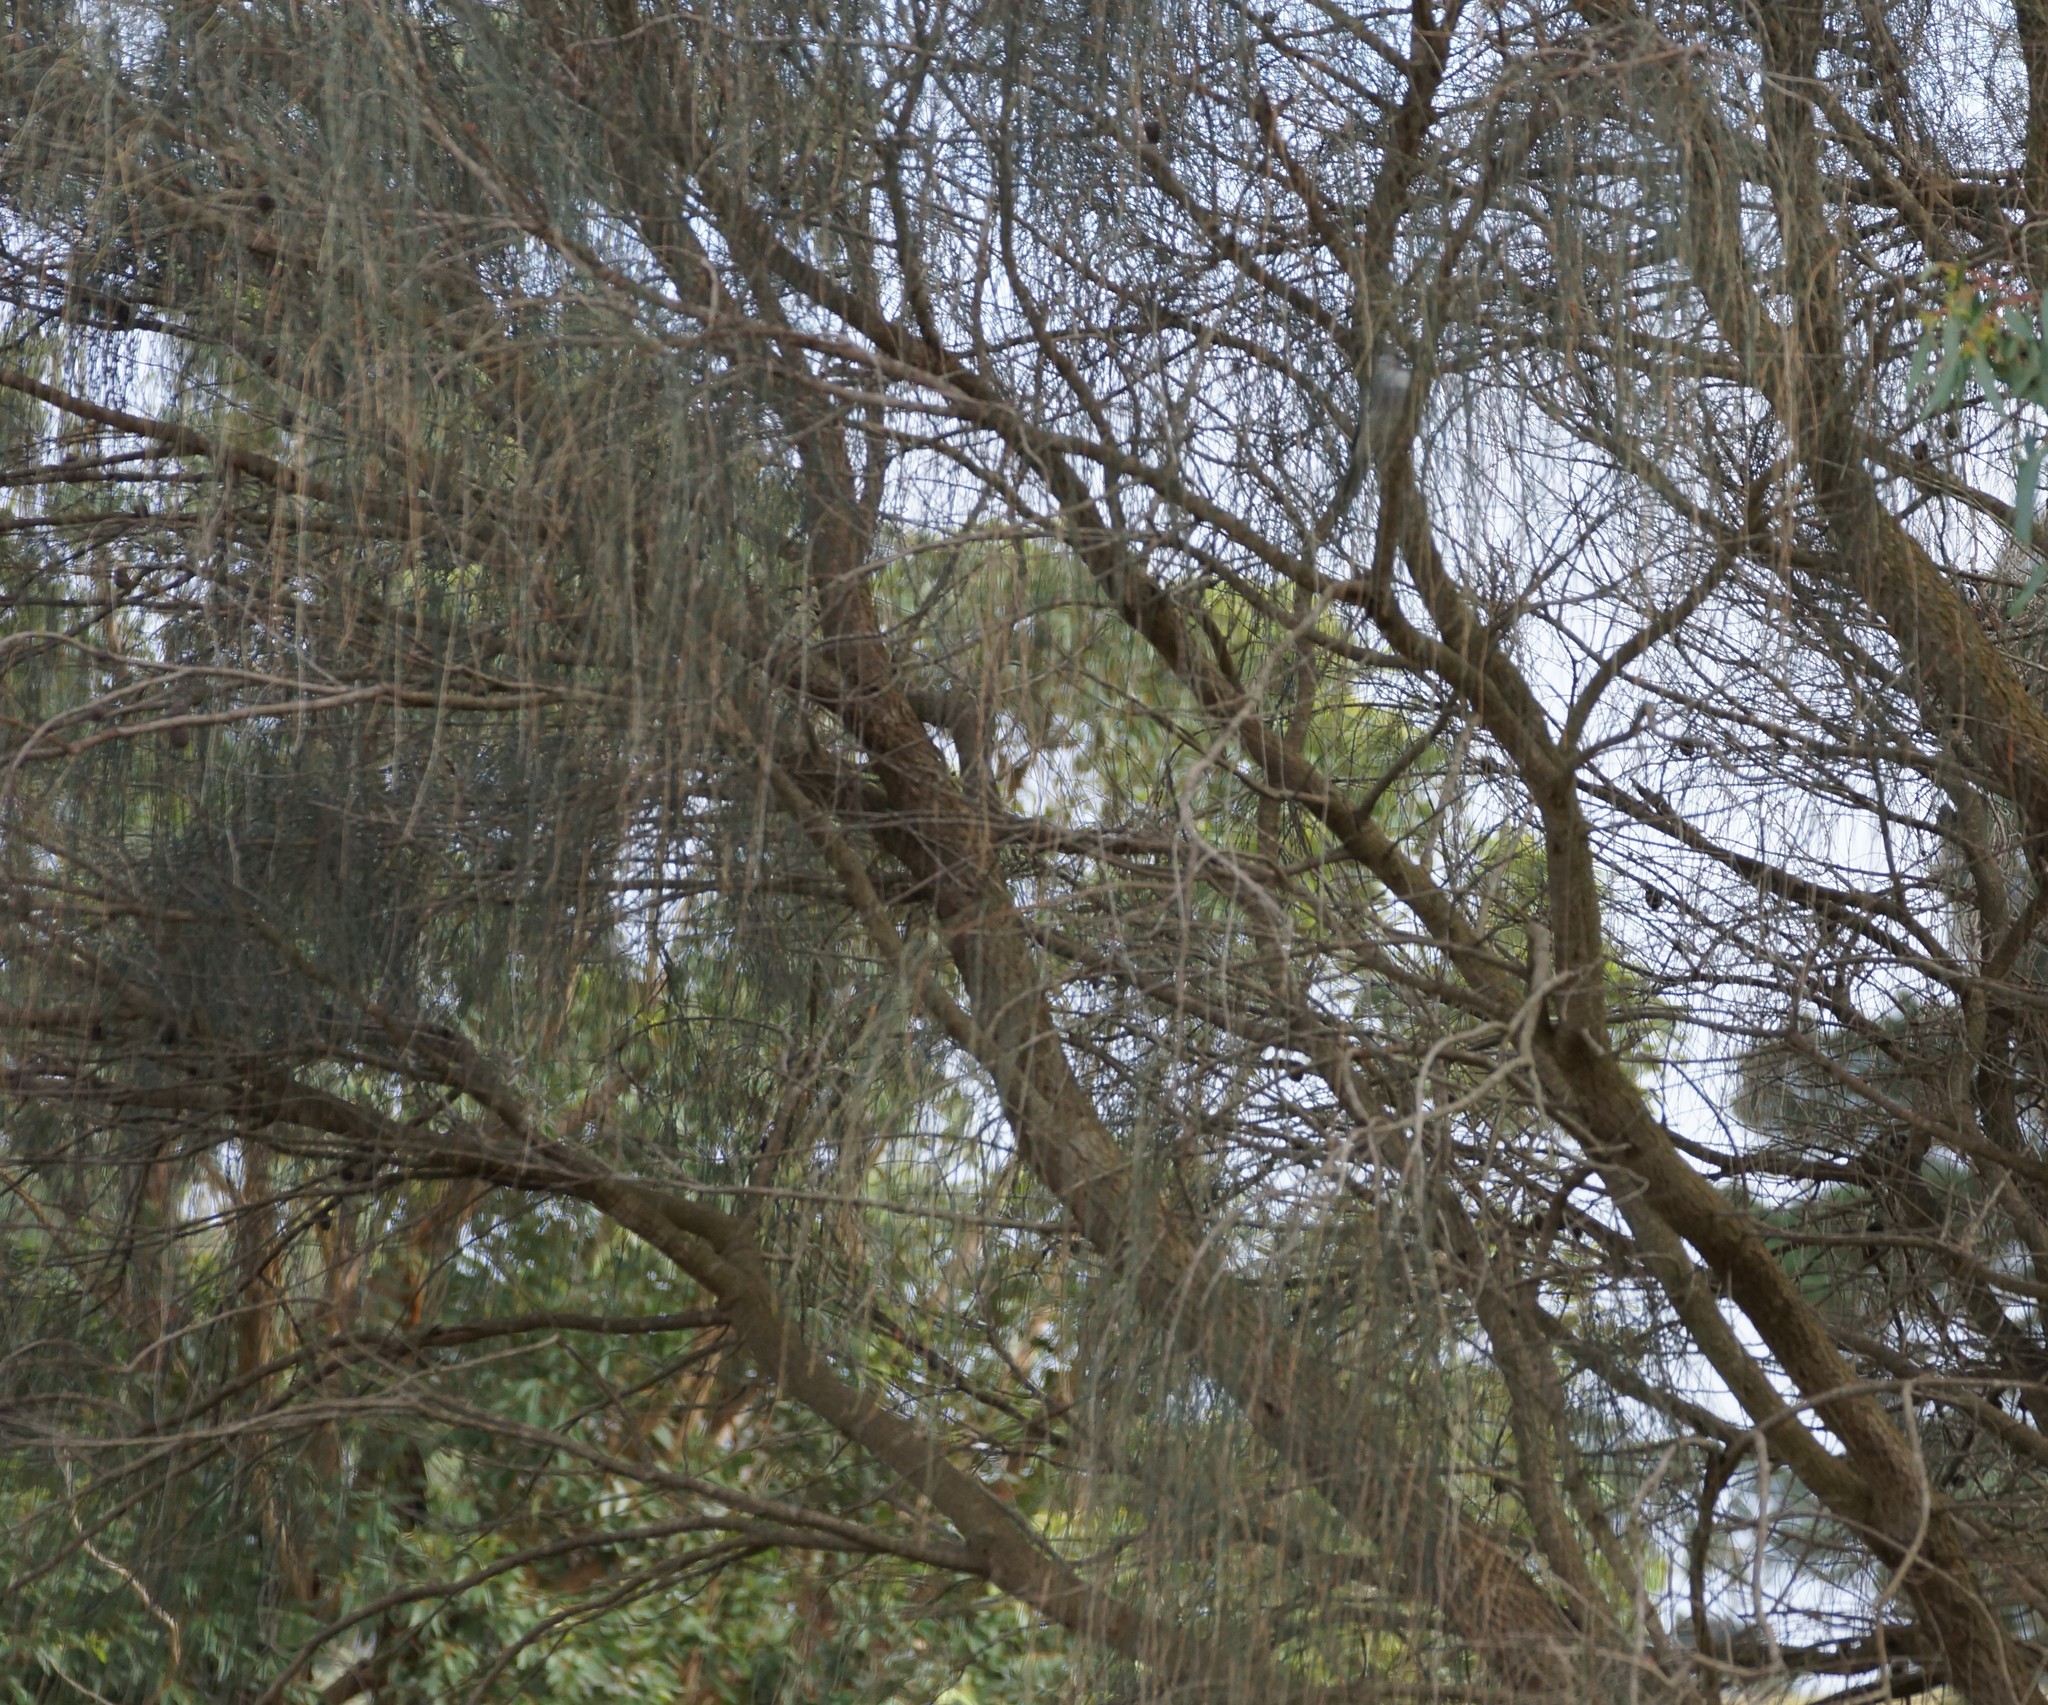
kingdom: Plantae
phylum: Tracheophyta
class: Magnoliopsida
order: Fagales
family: Casuarinaceae
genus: Allocasuarina
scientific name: Allocasuarina verticillata
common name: Drooping she-oak
